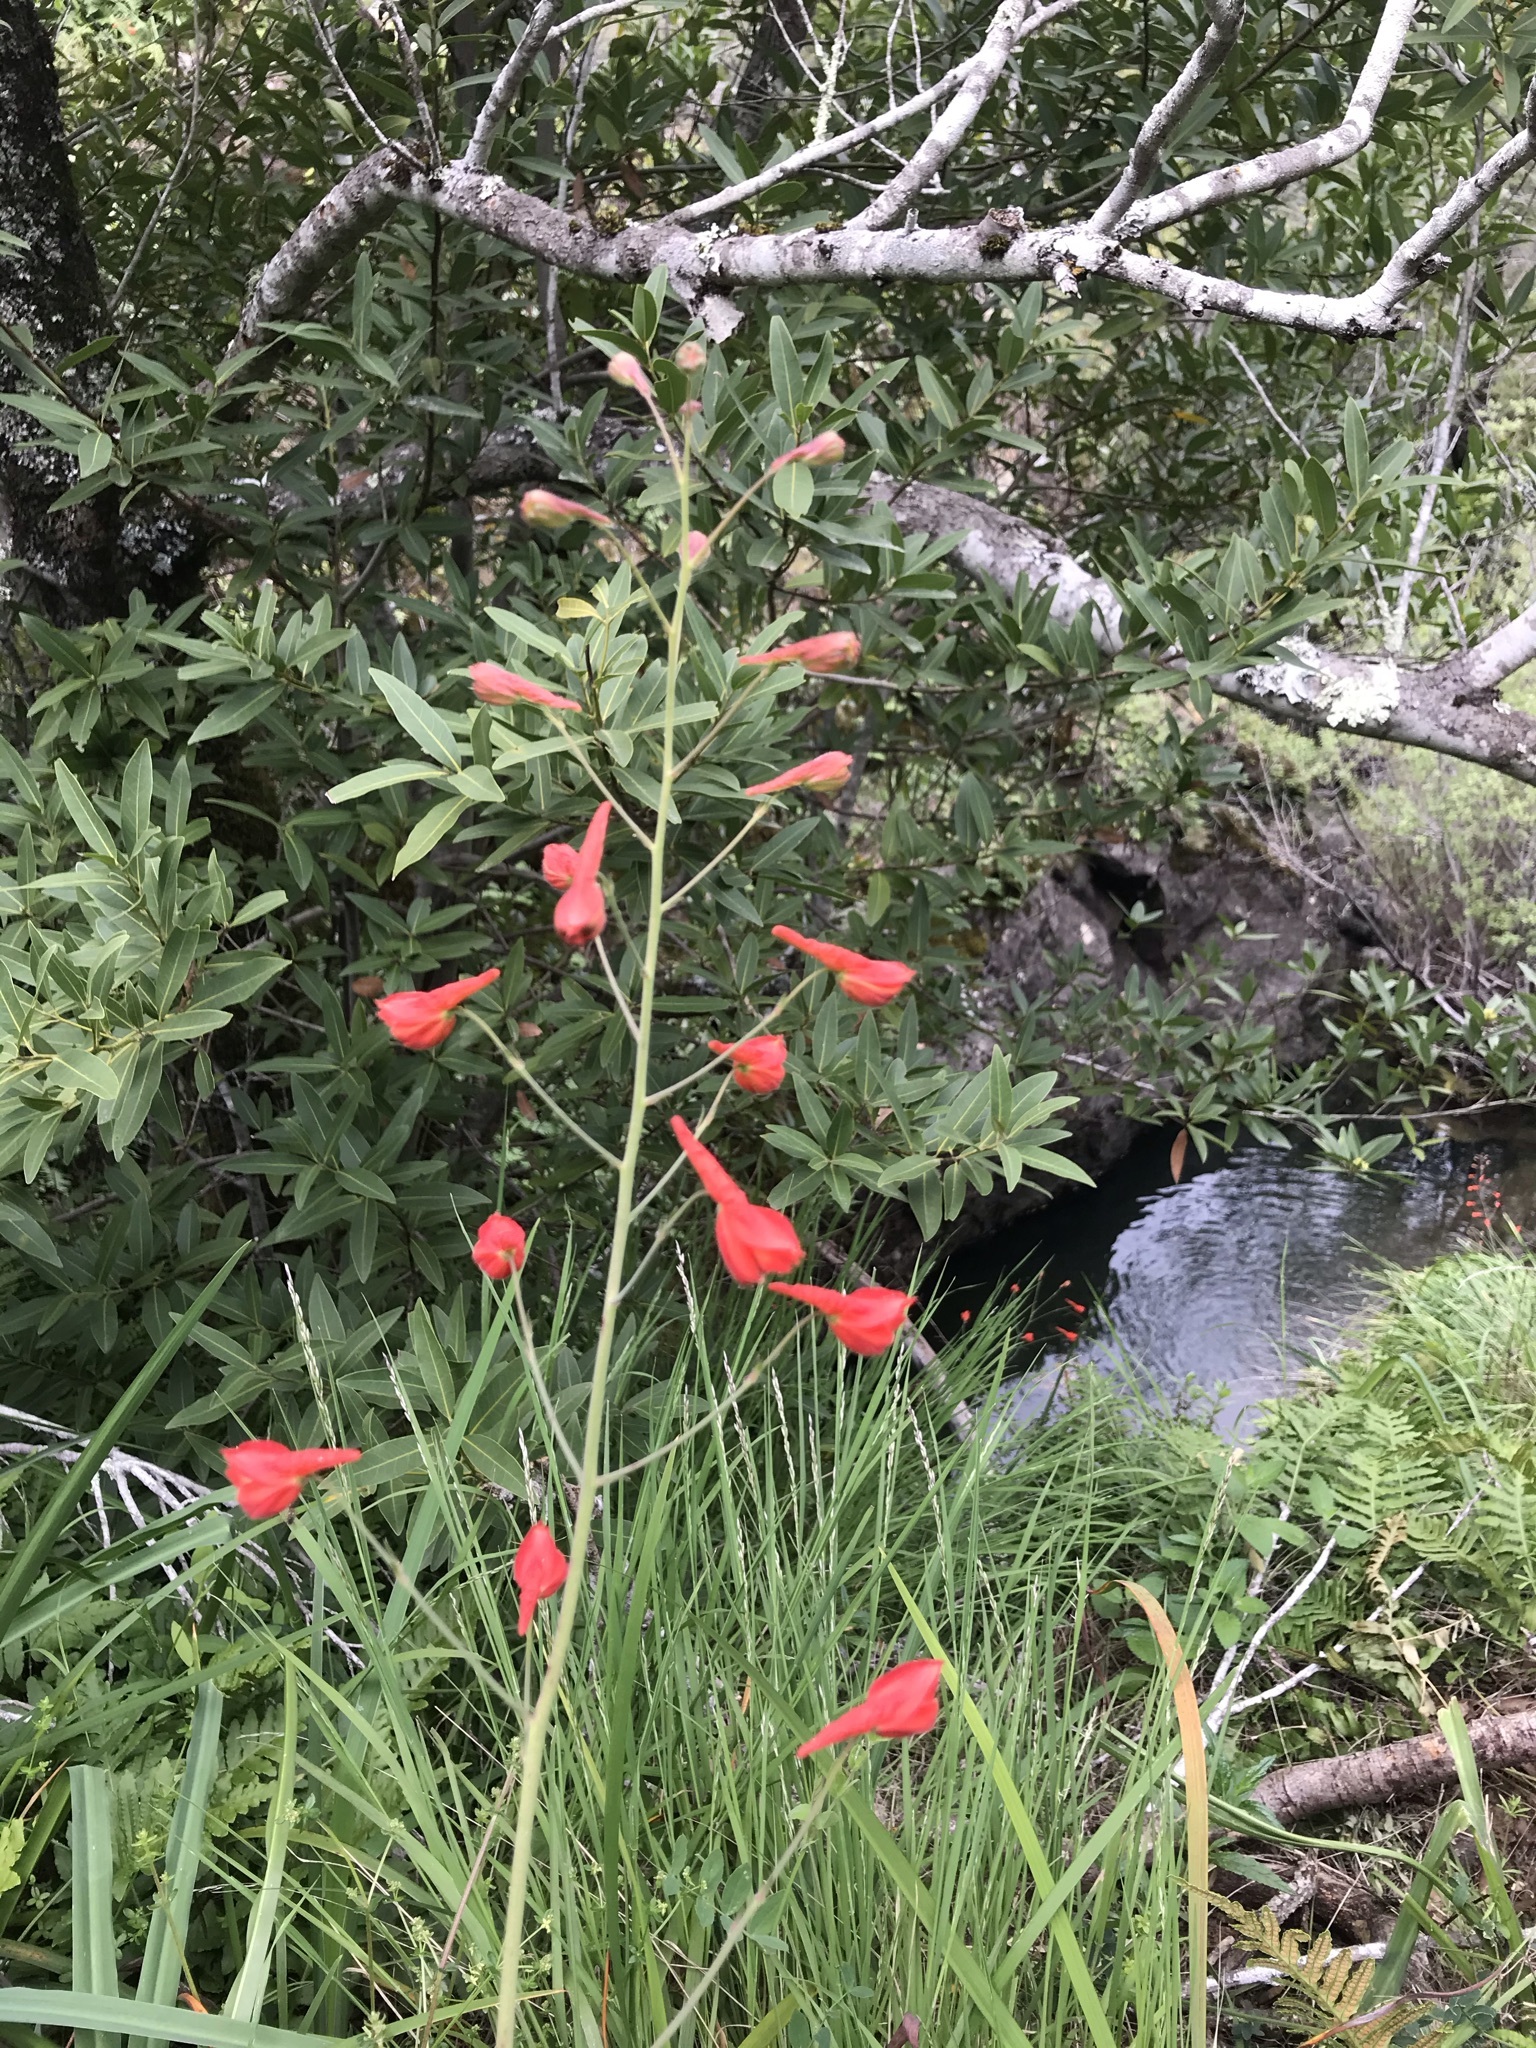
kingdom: Plantae
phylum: Tracheophyta
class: Magnoliopsida
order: Ranunculales
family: Ranunculaceae
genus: Delphinium
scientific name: Delphinium nudicaule
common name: Red larkspur
